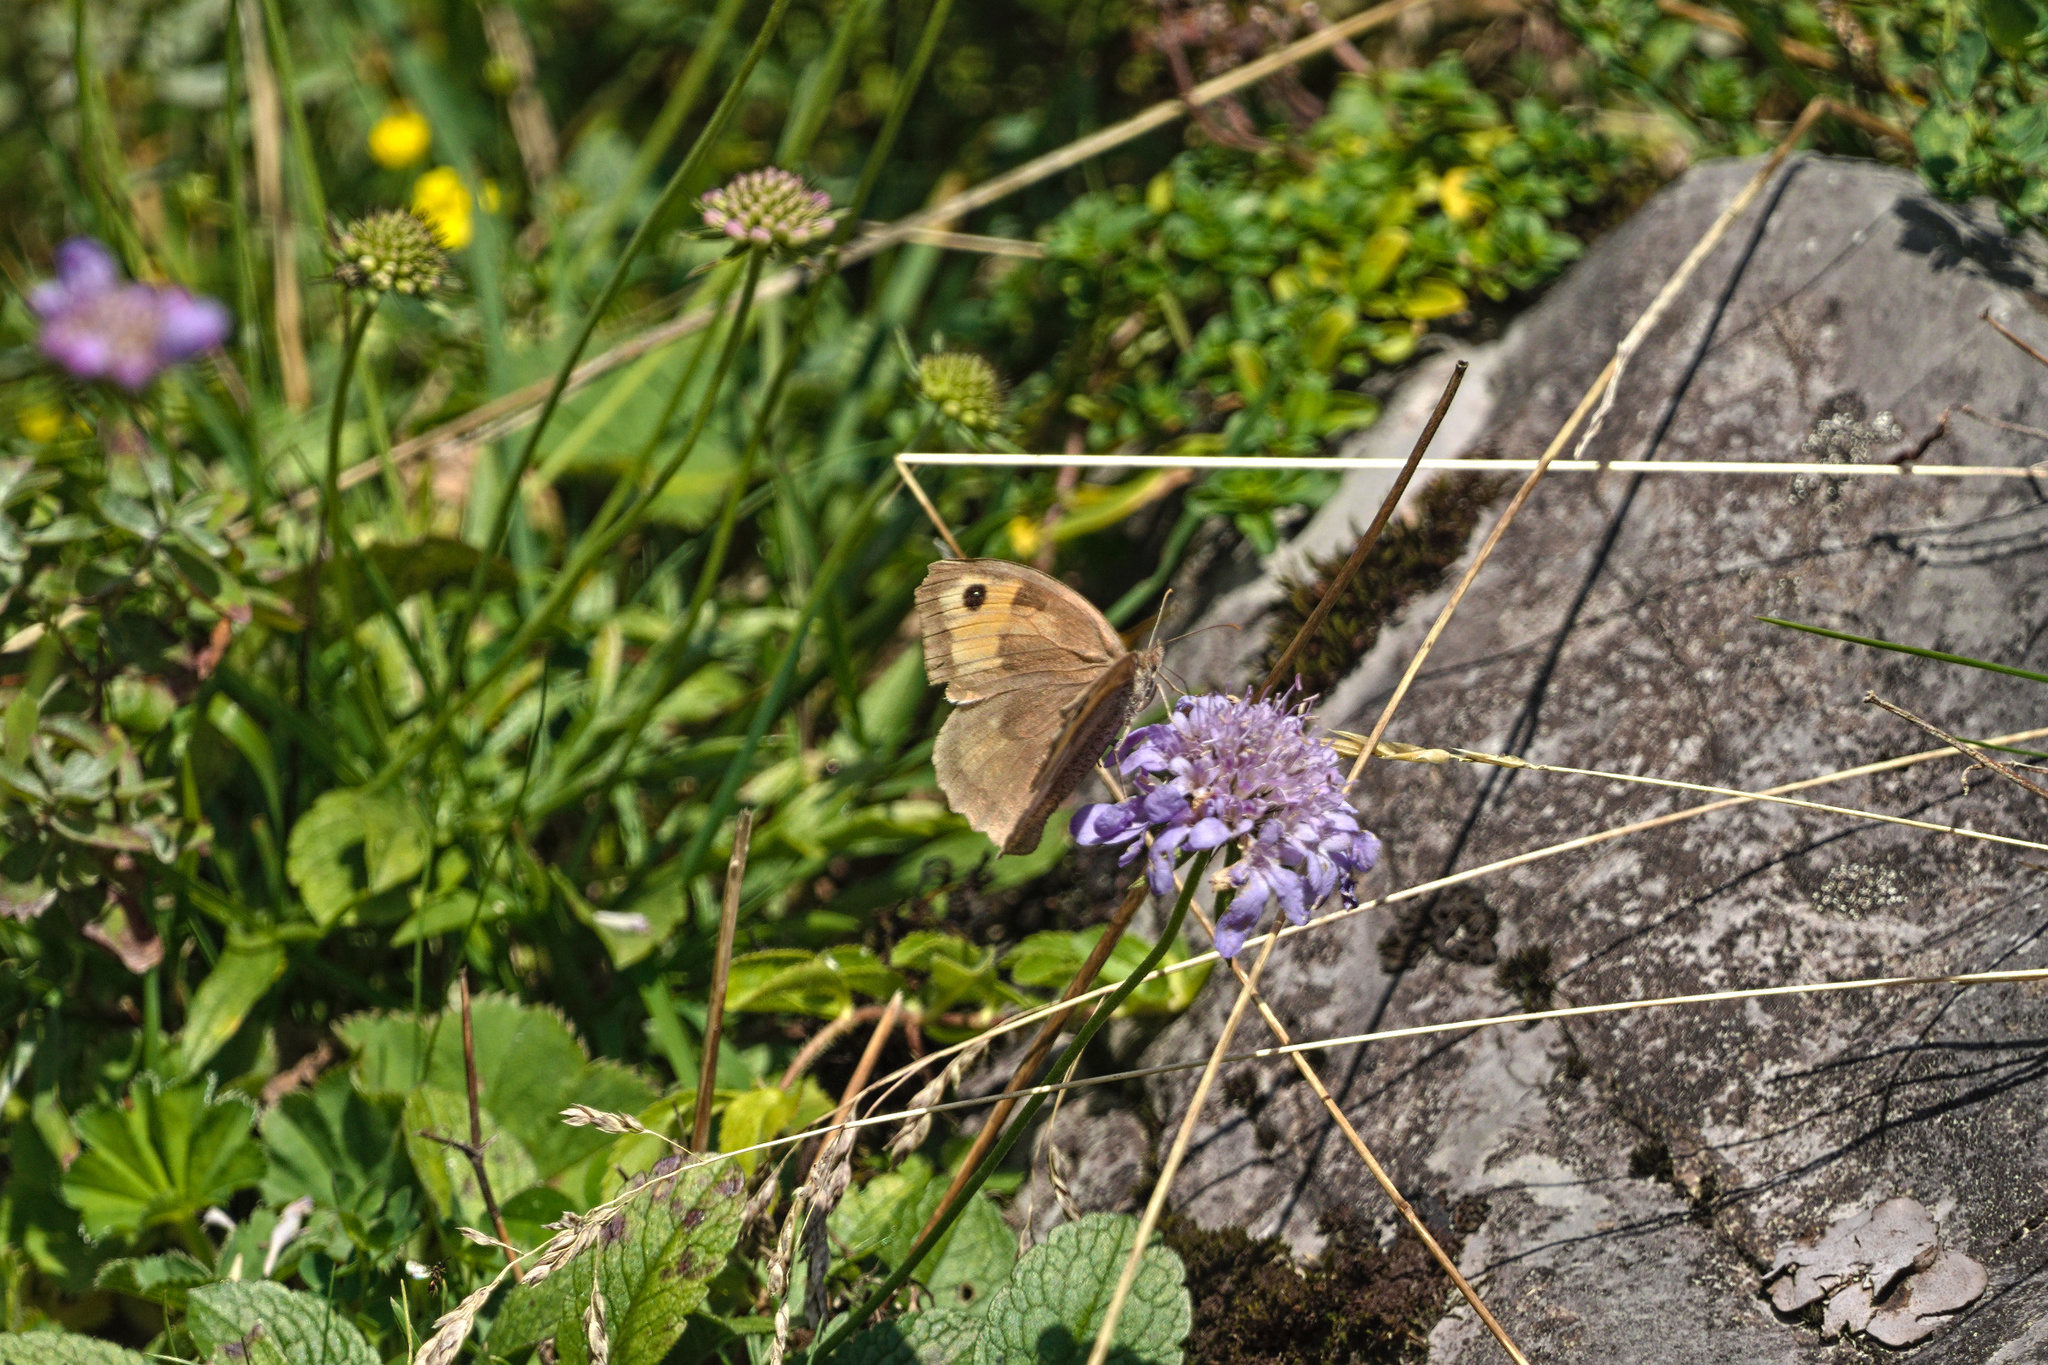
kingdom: Animalia
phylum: Arthropoda
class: Insecta
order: Lepidoptera
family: Nymphalidae
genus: Maniola
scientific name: Maniola jurtina
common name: Meadow brown
